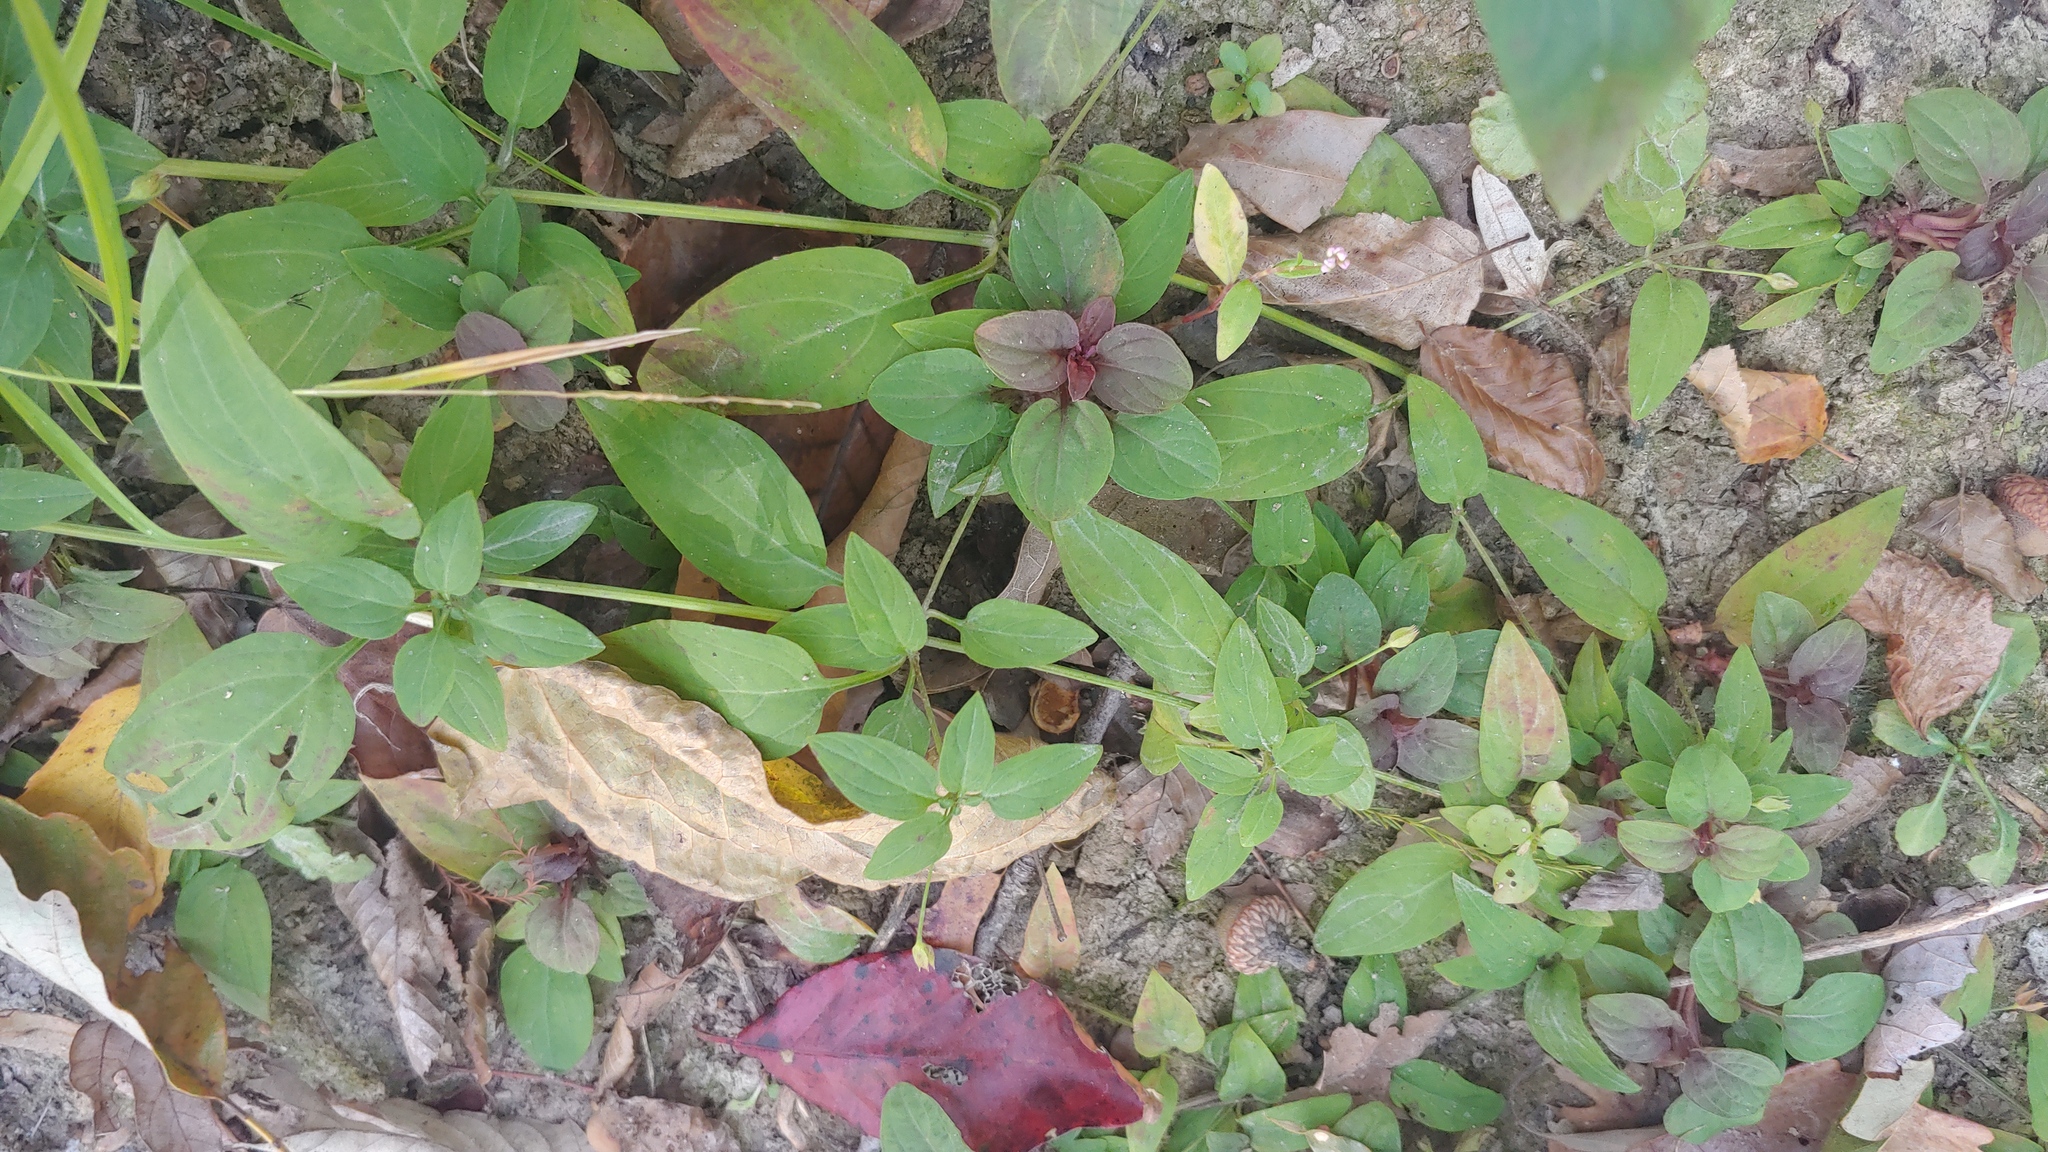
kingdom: Plantae
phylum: Tracheophyta
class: Magnoliopsida
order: Ericales
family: Primulaceae
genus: Lysimachia
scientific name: Lysimachia radicans
